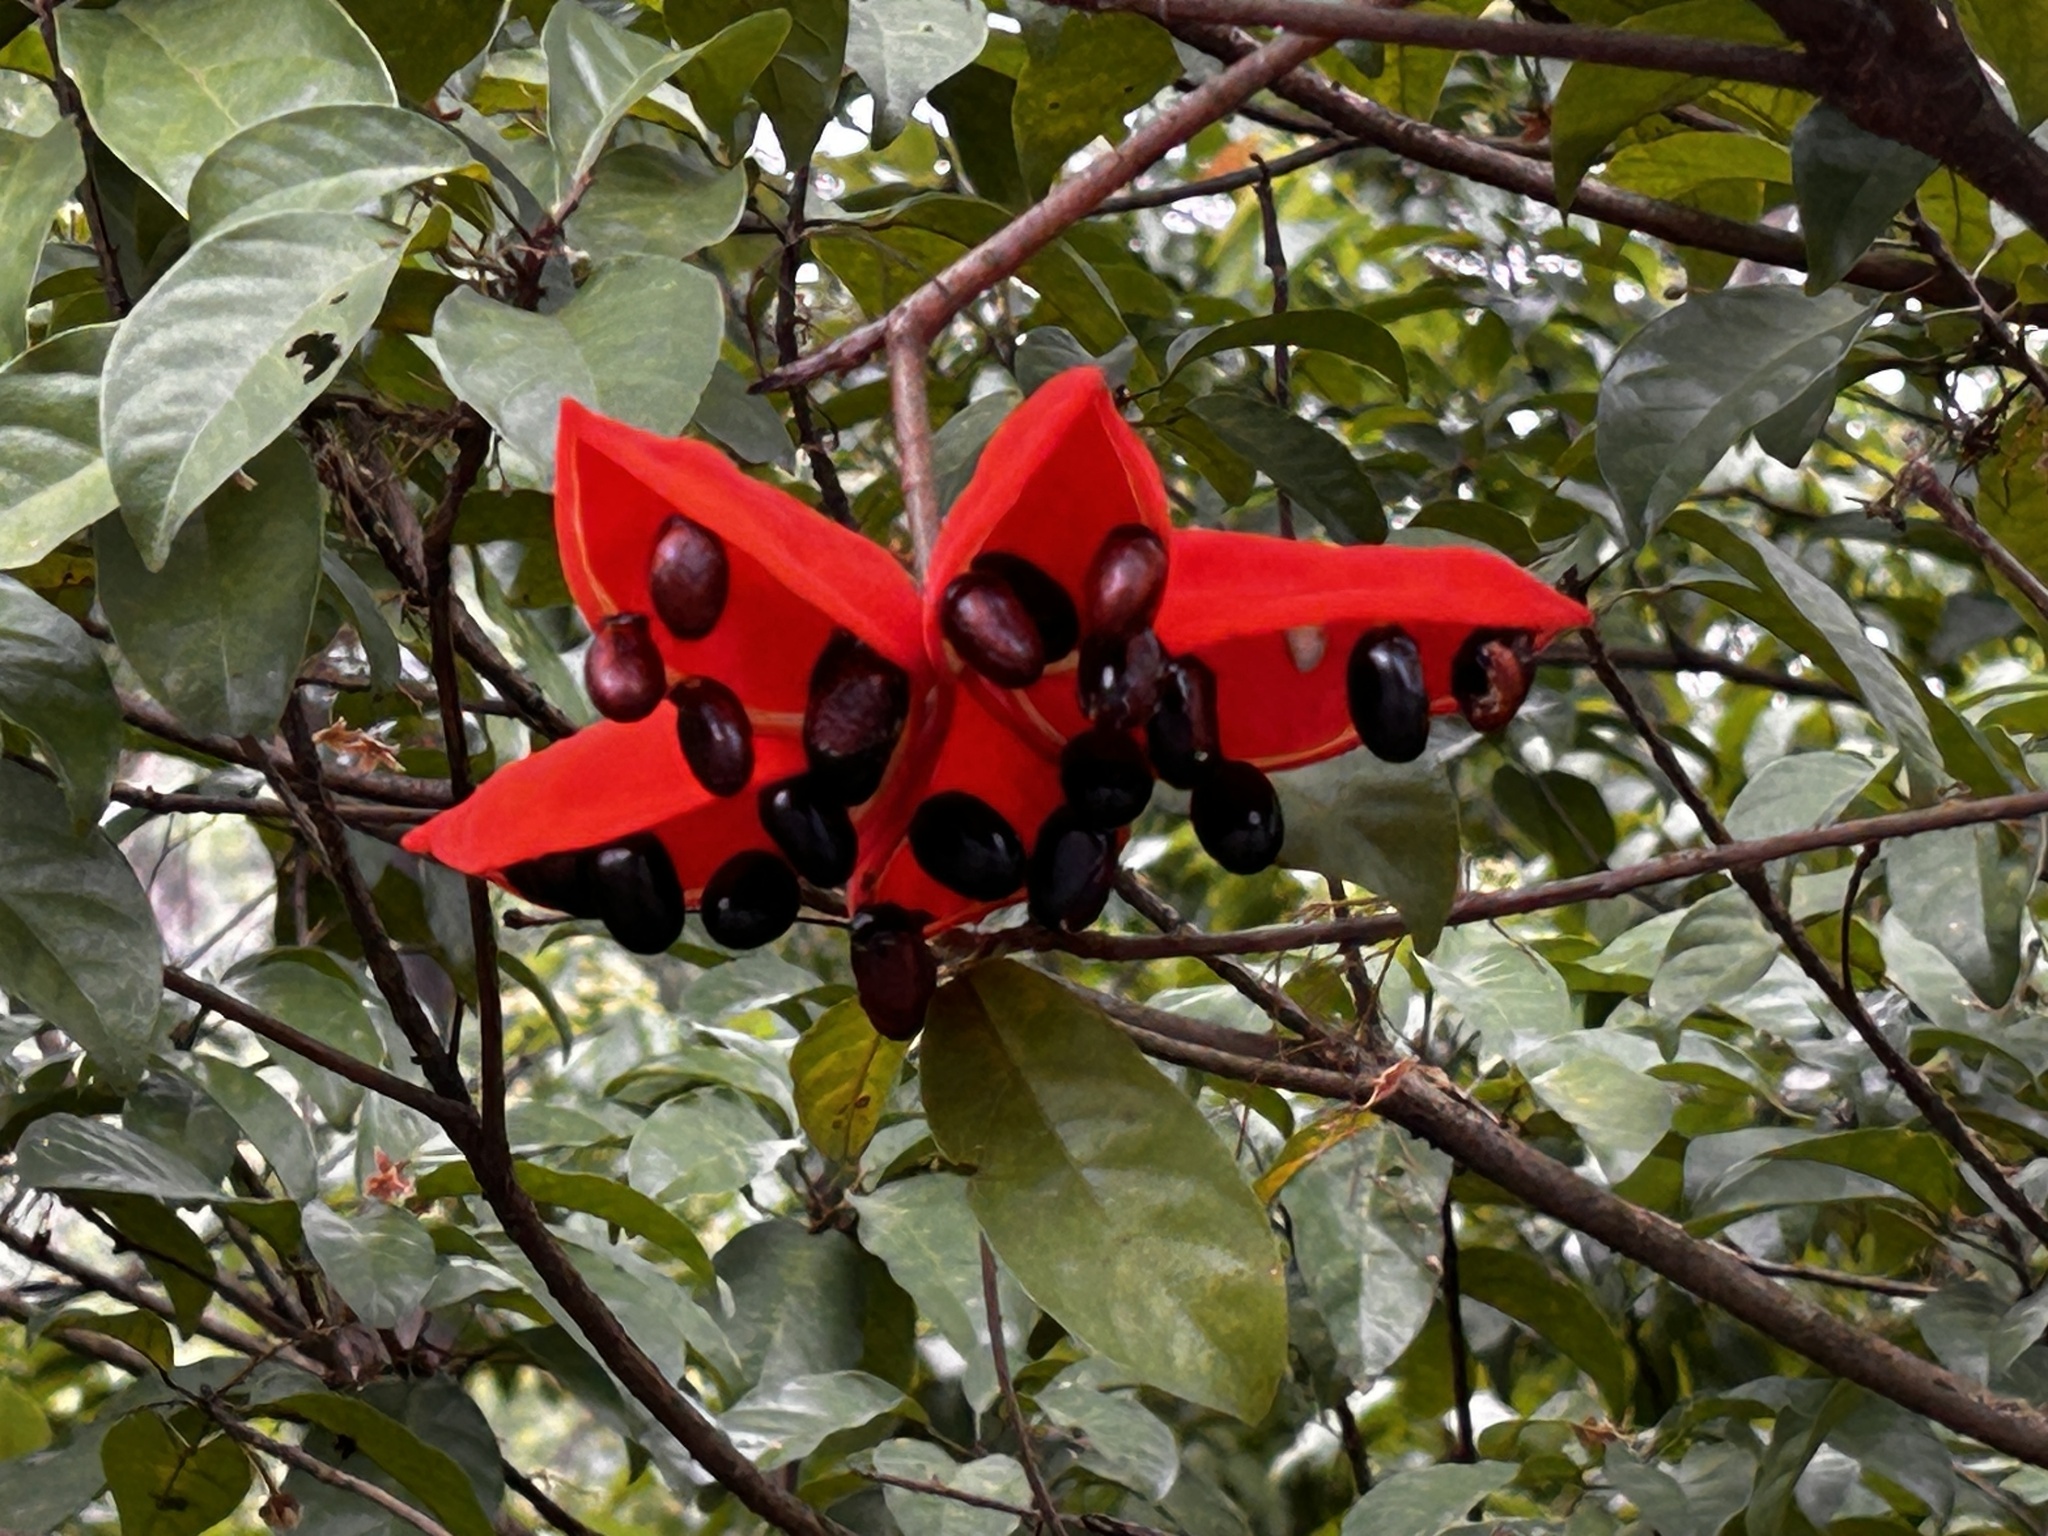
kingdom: Plantae
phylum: Tracheophyta
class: Magnoliopsida
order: Malvales
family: Malvaceae
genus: Sterculia
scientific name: Sterculia lanceolata
